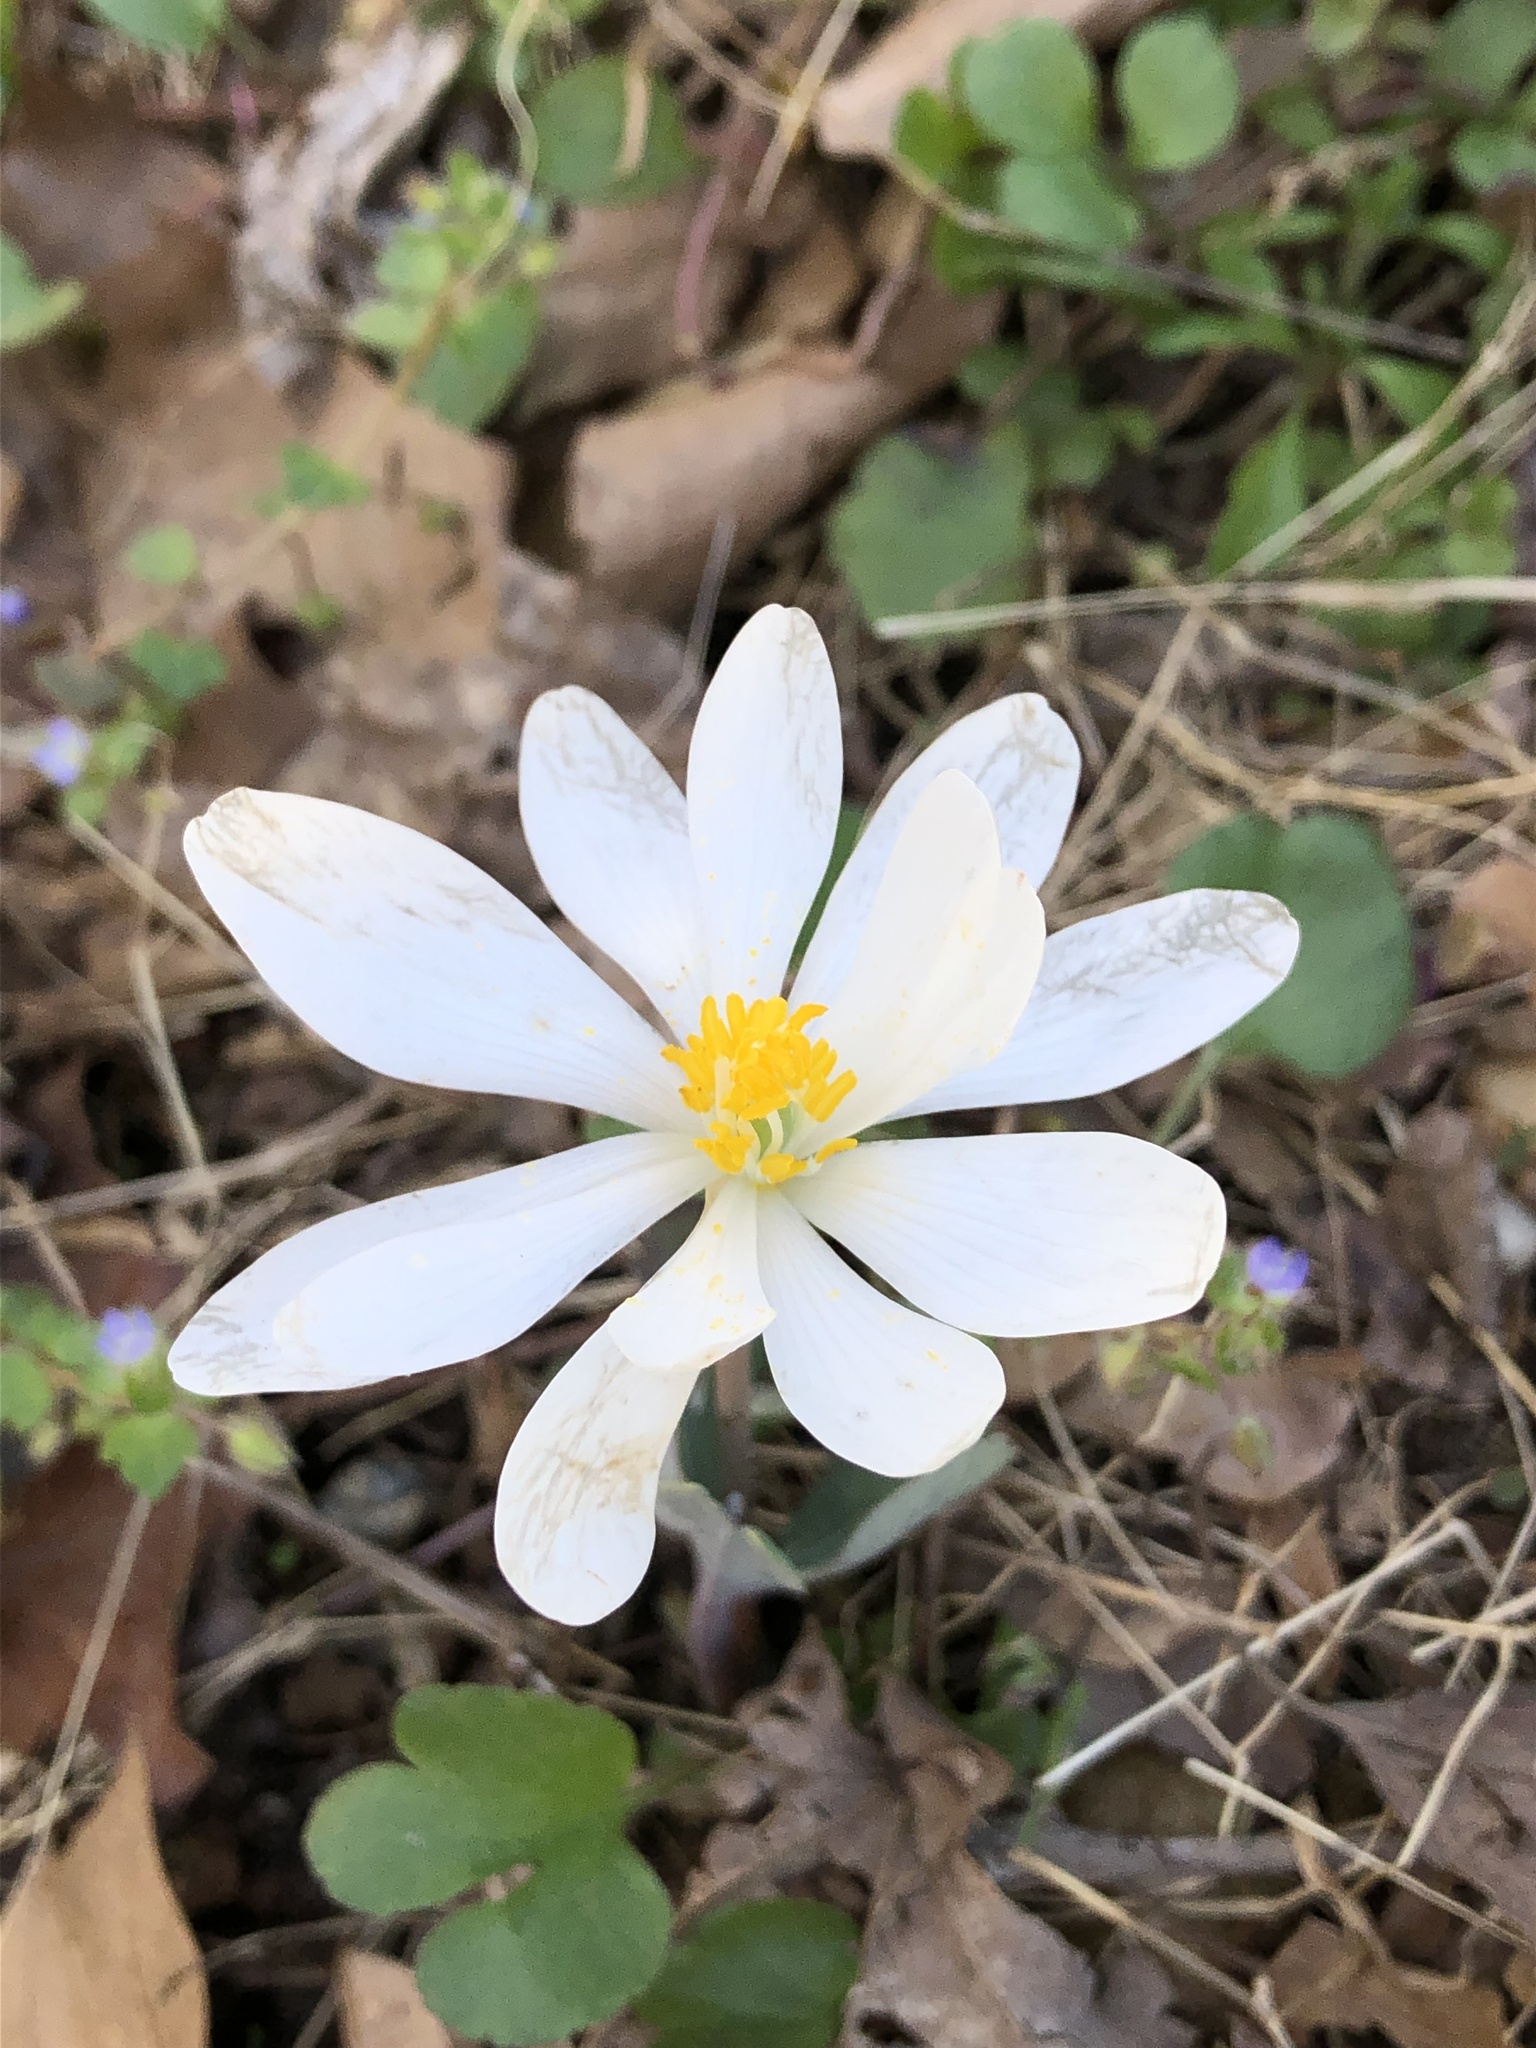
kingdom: Plantae
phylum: Tracheophyta
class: Magnoliopsida
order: Ranunculales
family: Papaveraceae
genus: Sanguinaria
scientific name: Sanguinaria canadensis
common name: Bloodroot
